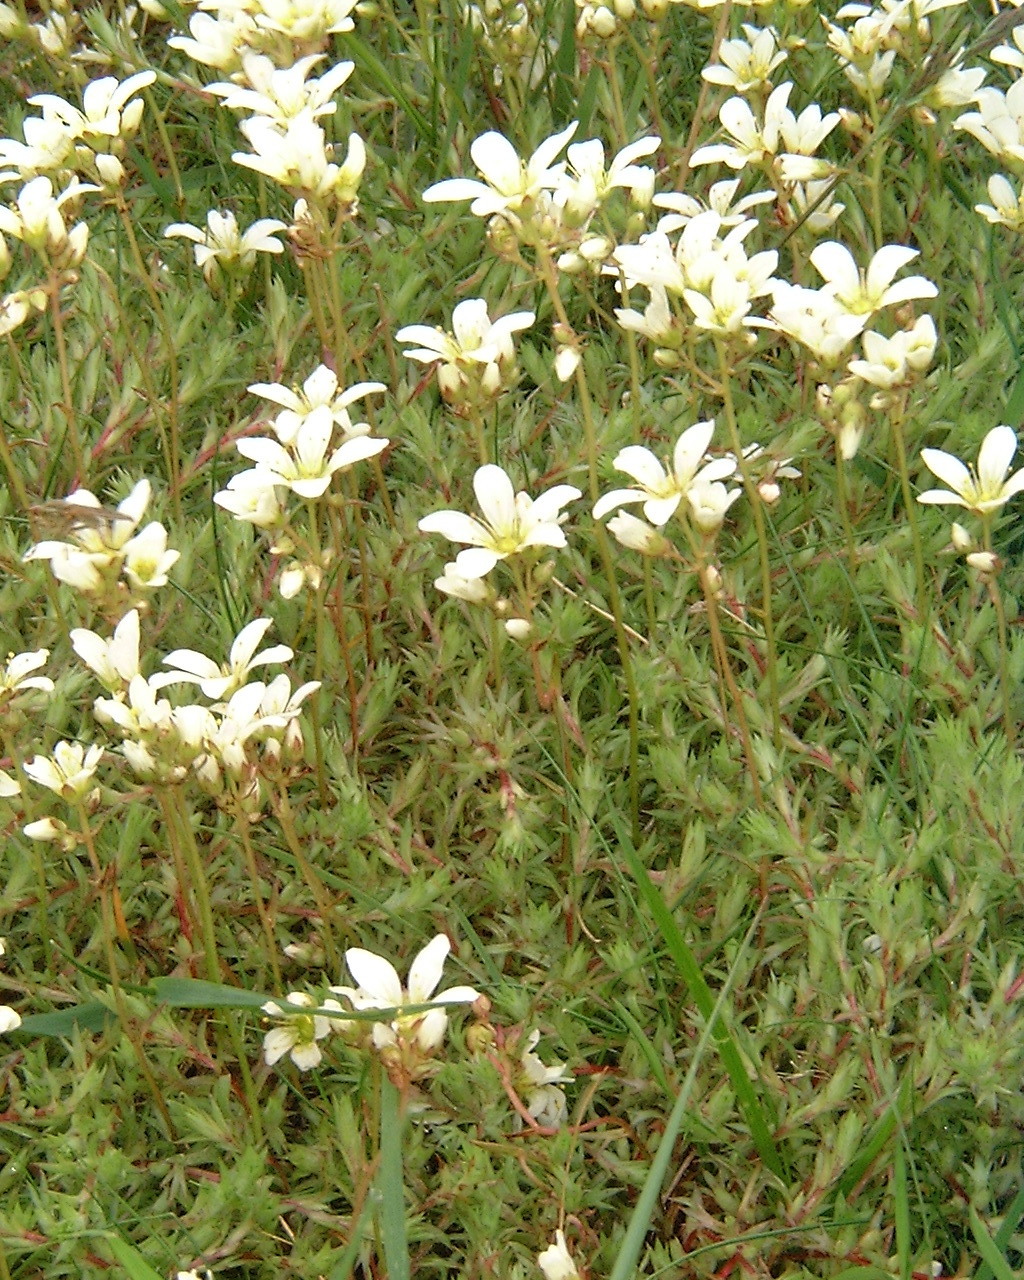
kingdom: Plantae
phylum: Tracheophyta
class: Magnoliopsida
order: Saxifragales
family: Saxifragaceae
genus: Saxifraga
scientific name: Saxifraga hypnoides
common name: Mossy saxifrage
